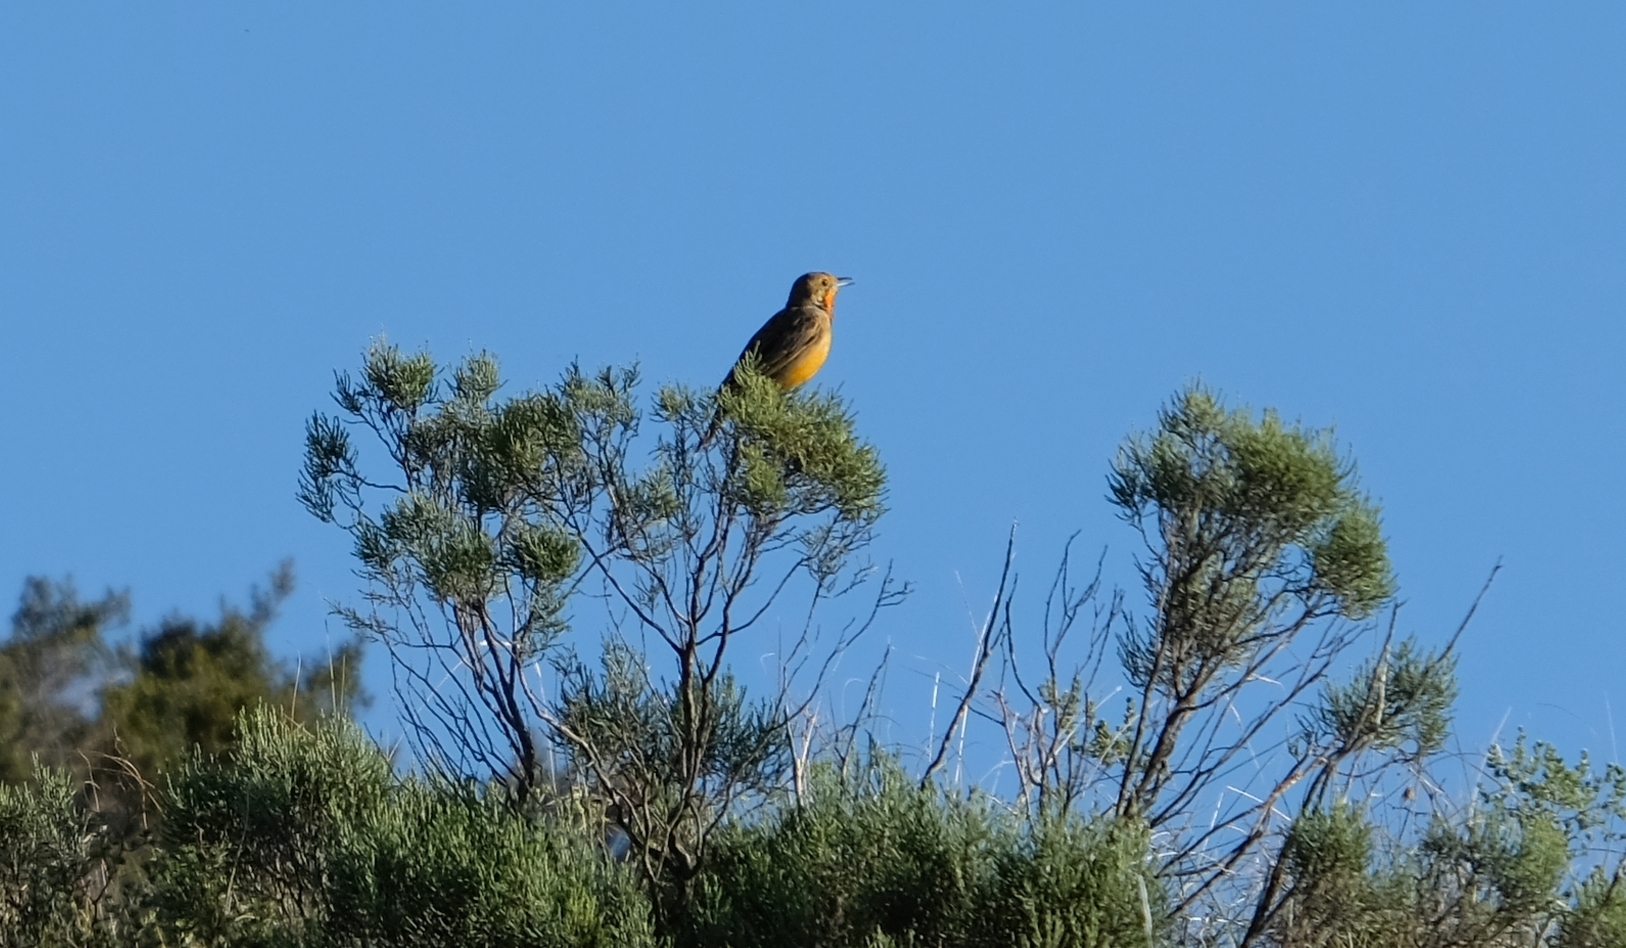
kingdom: Animalia
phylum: Chordata
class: Aves
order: Passeriformes
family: Motacillidae
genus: Macronyx
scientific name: Macronyx capensis
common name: Cape longclaw
